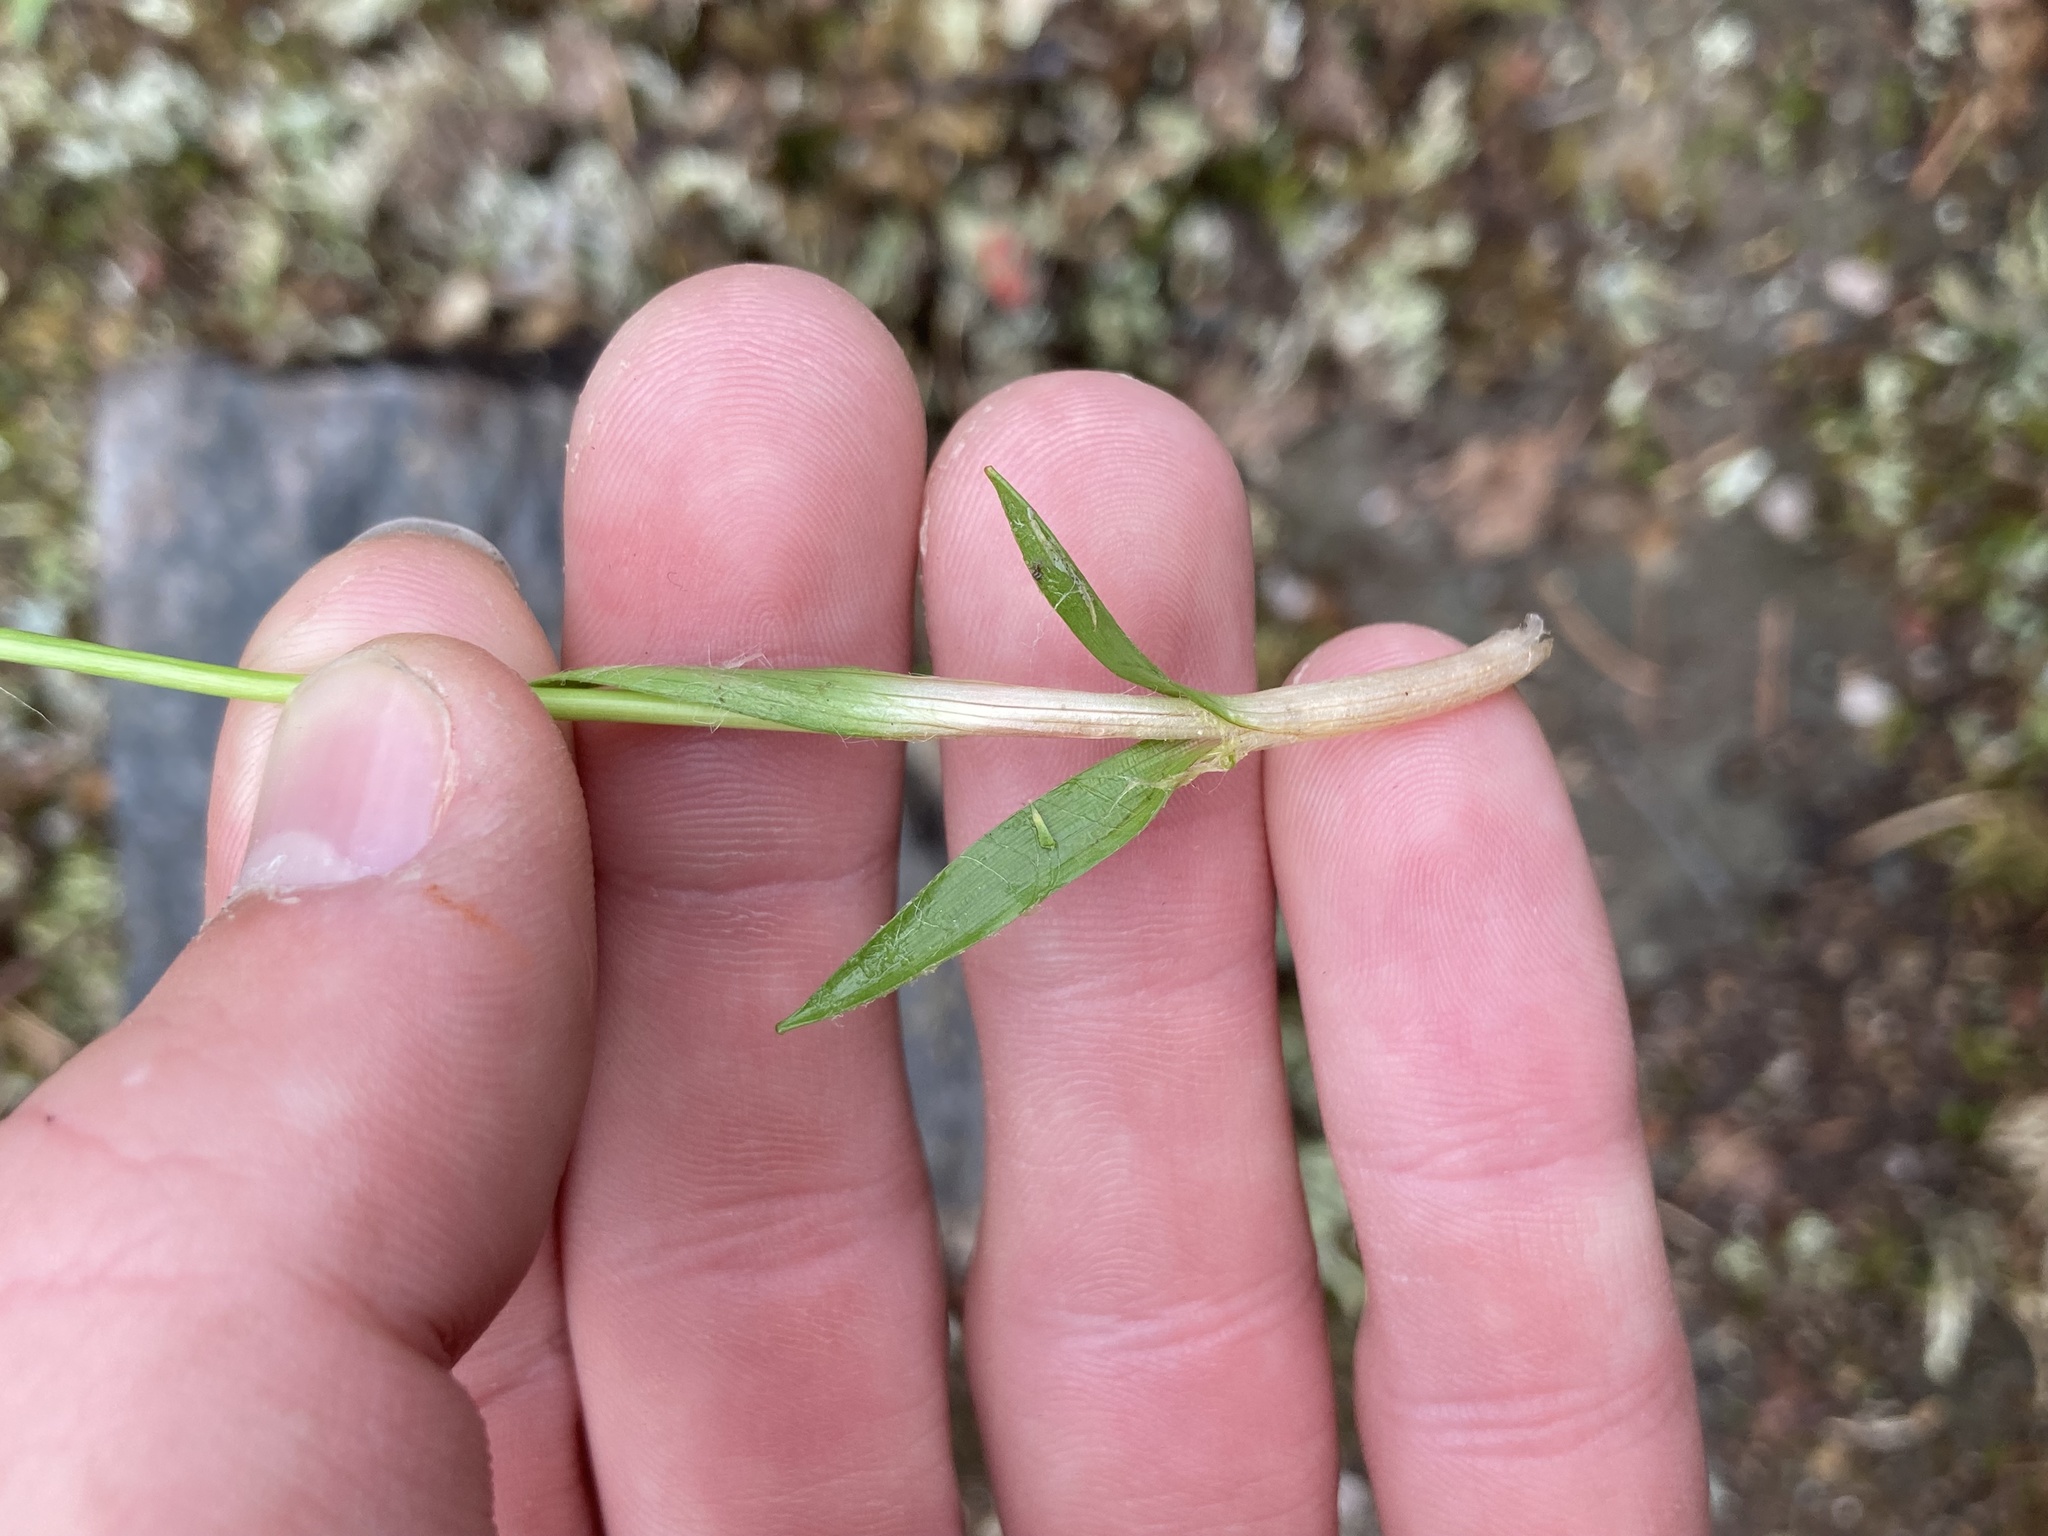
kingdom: Plantae
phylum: Tracheophyta
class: Liliopsida
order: Poales
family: Juncaceae
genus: Luzula
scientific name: Luzula acuminata
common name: Hairy woodrush
